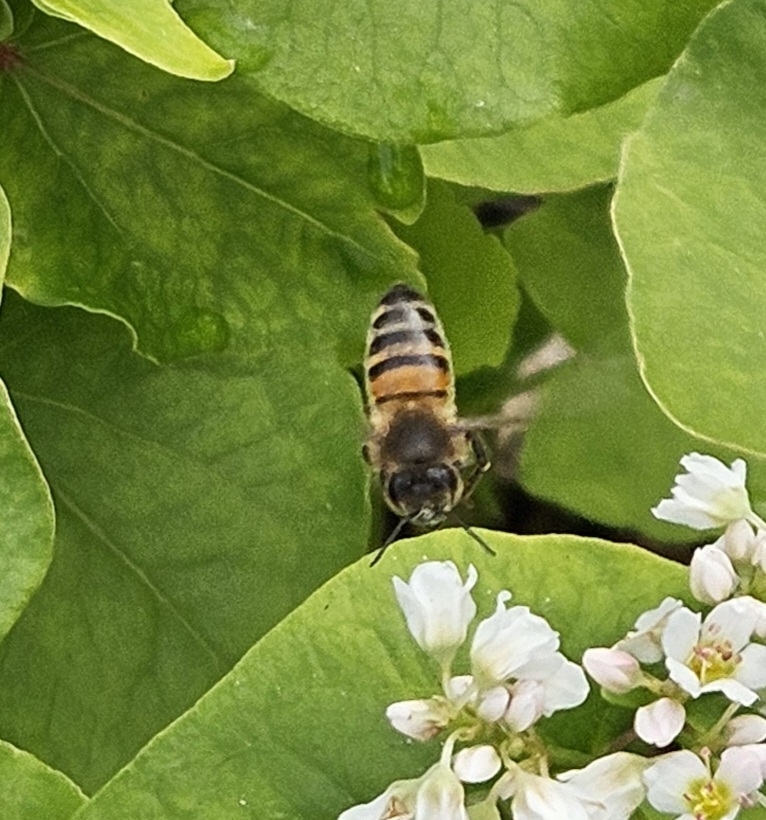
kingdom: Animalia
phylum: Arthropoda
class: Insecta
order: Hymenoptera
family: Apidae
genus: Apis
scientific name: Apis mellifera
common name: Honey bee
